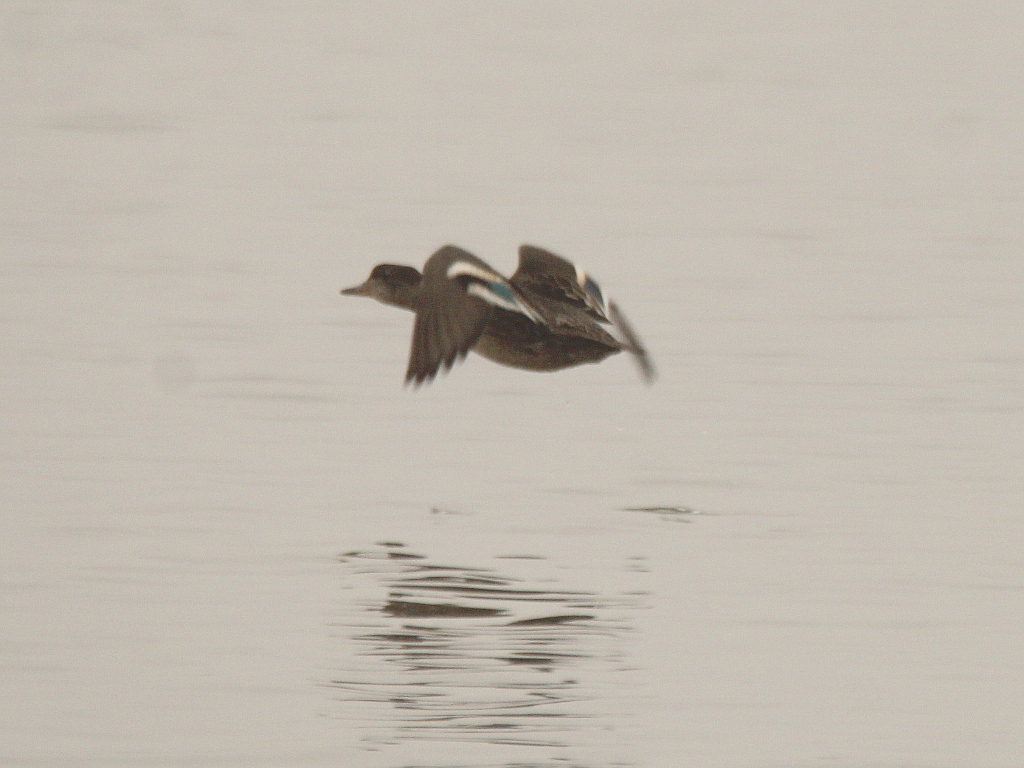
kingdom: Animalia
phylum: Chordata
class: Aves
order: Anseriformes
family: Anatidae
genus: Anas
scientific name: Anas crecca
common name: Eurasian teal
